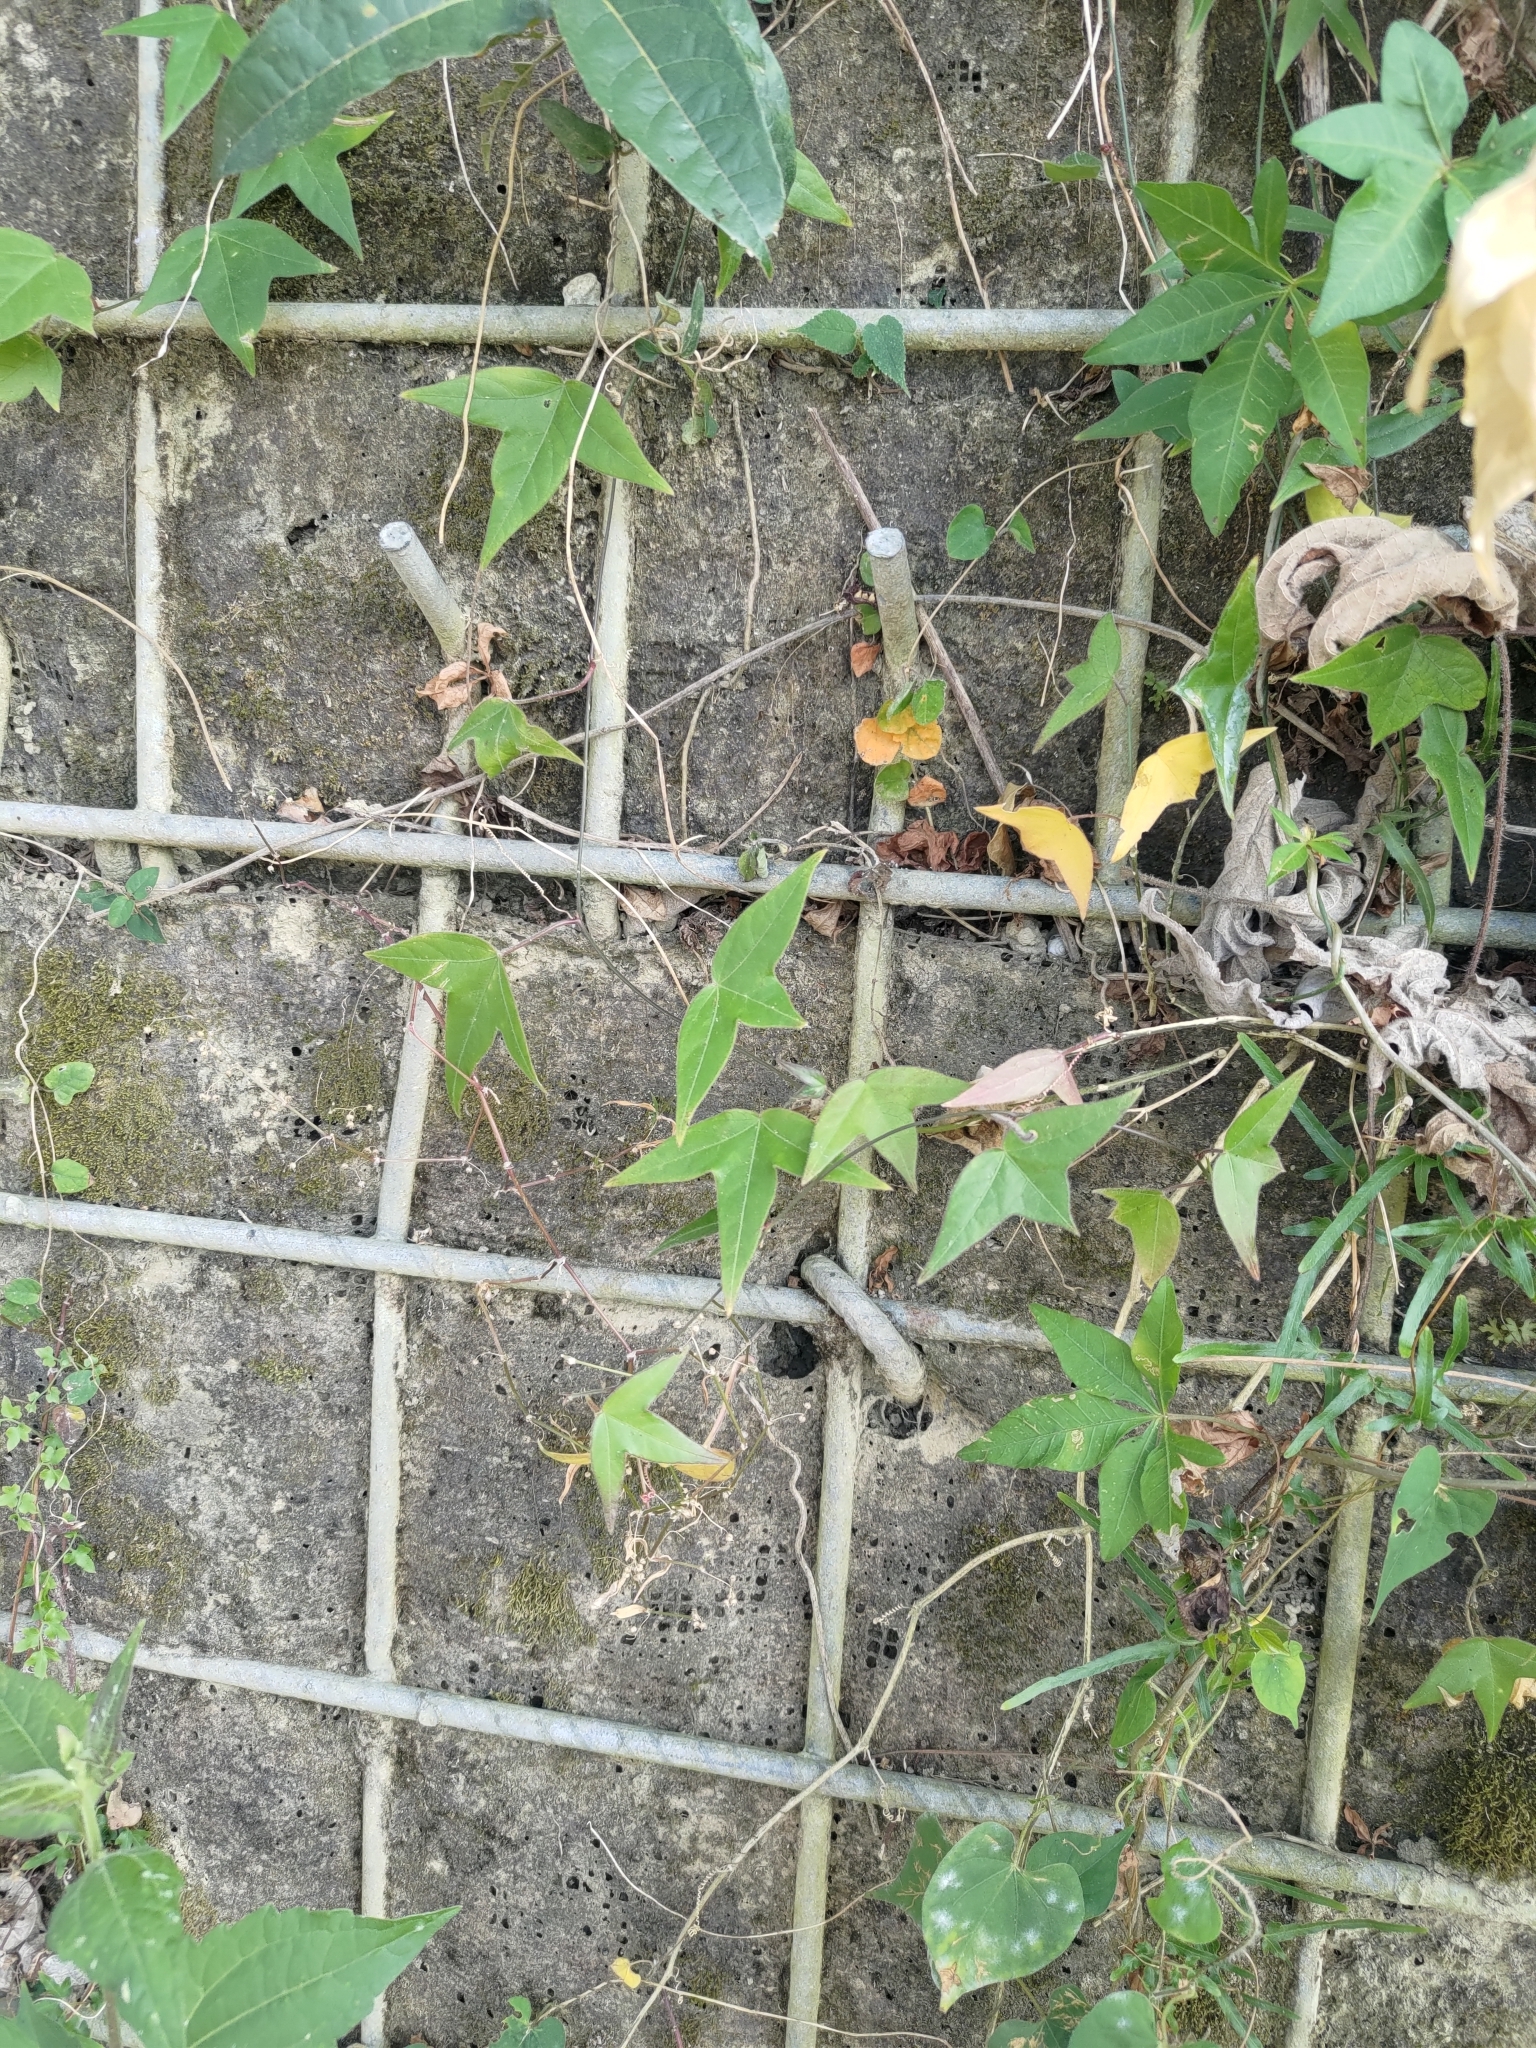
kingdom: Plantae
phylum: Tracheophyta
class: Magnoliopsida
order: Malpighiales
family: Passifloraceae
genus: Passiflora
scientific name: Passiflora suberosa
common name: Wild passionfruit
